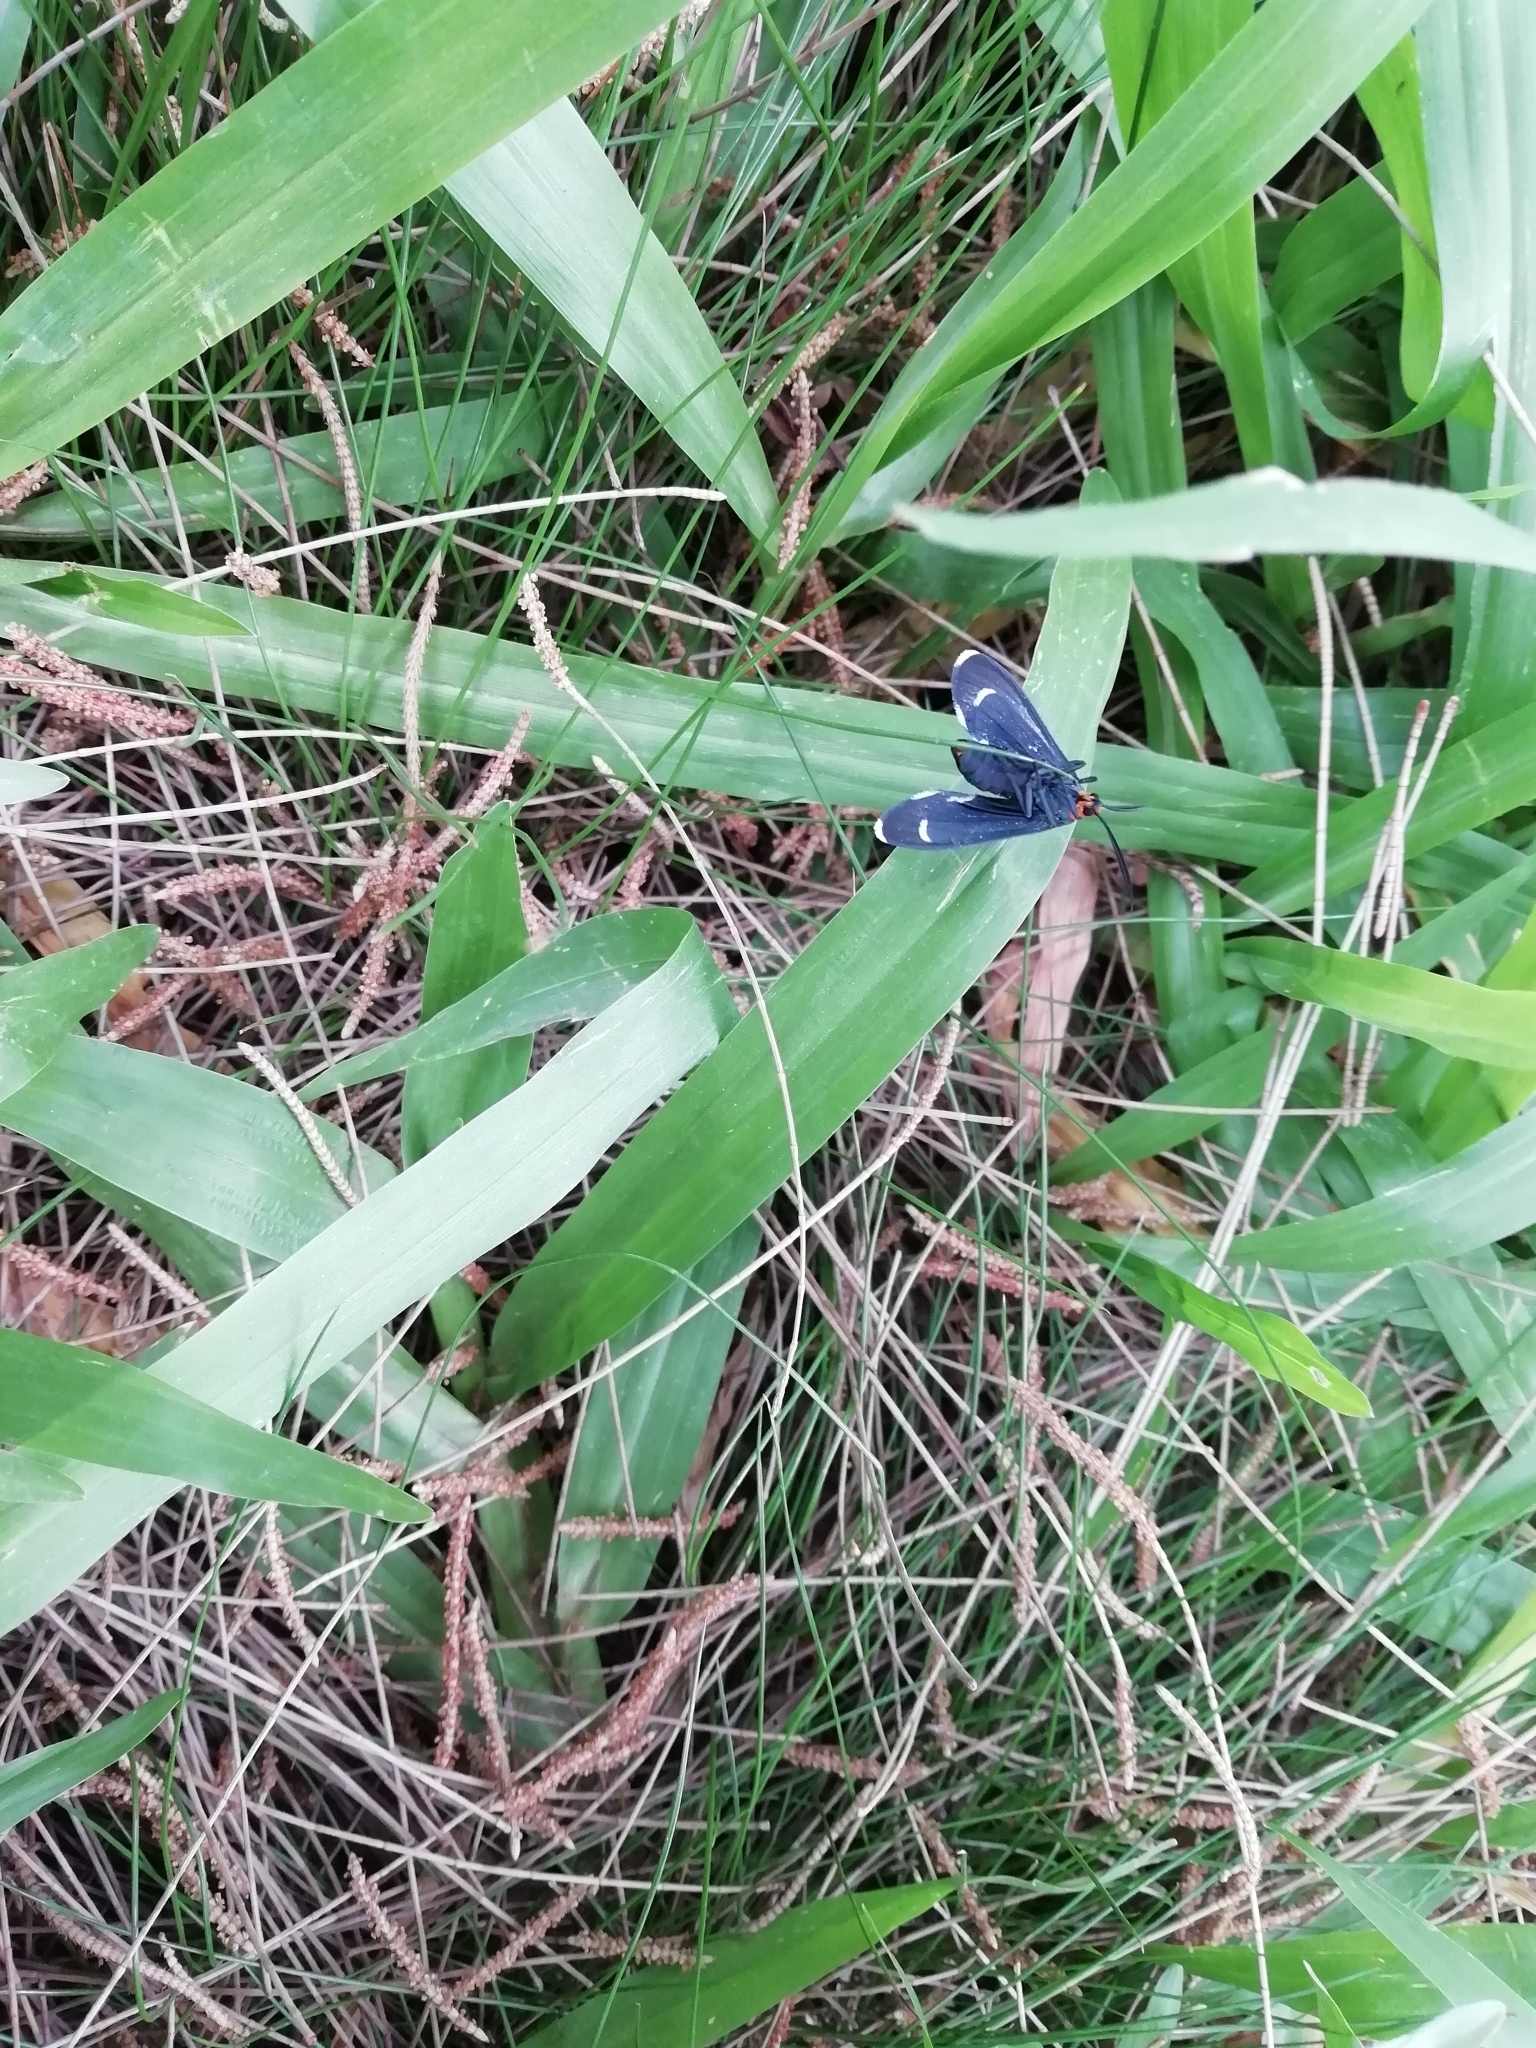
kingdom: Animalia
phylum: Arthropoda
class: Insecta
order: Lepidoptera
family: Erebidae
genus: Ctenucha
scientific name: Ctenucha rubriceps
